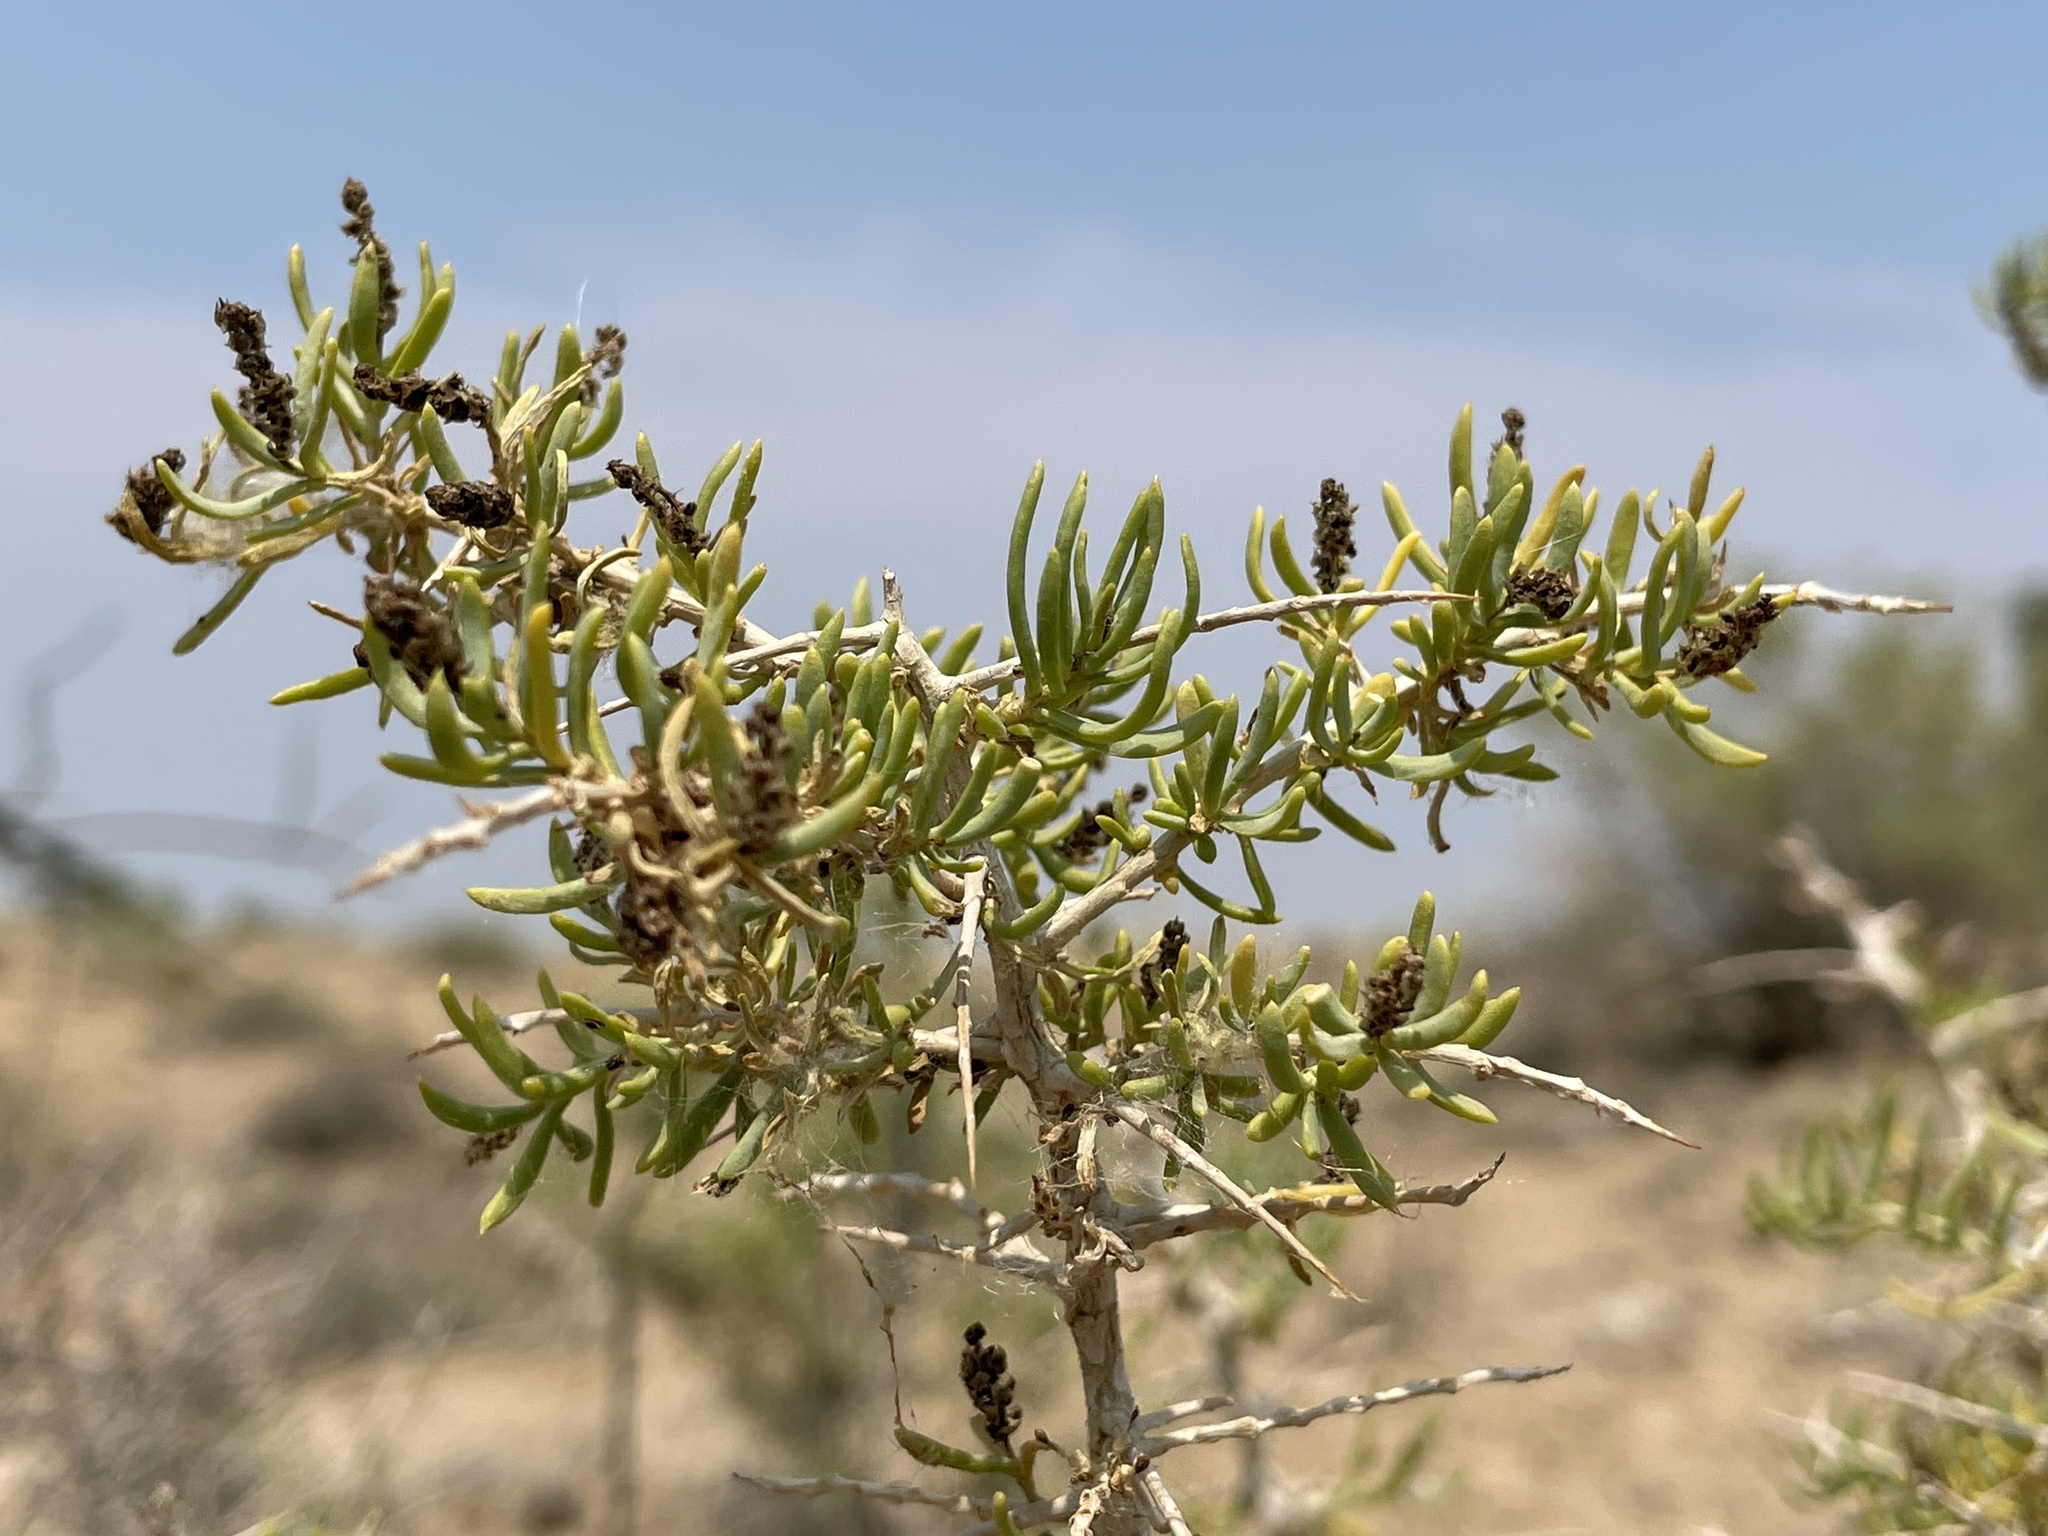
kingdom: Plantae
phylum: Tracheophyta
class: Magnoliopsida
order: Caryophyllales
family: Sarcobataceae
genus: Sarcobatus
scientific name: Sarcobatus vermiculatus
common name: Greasewood
